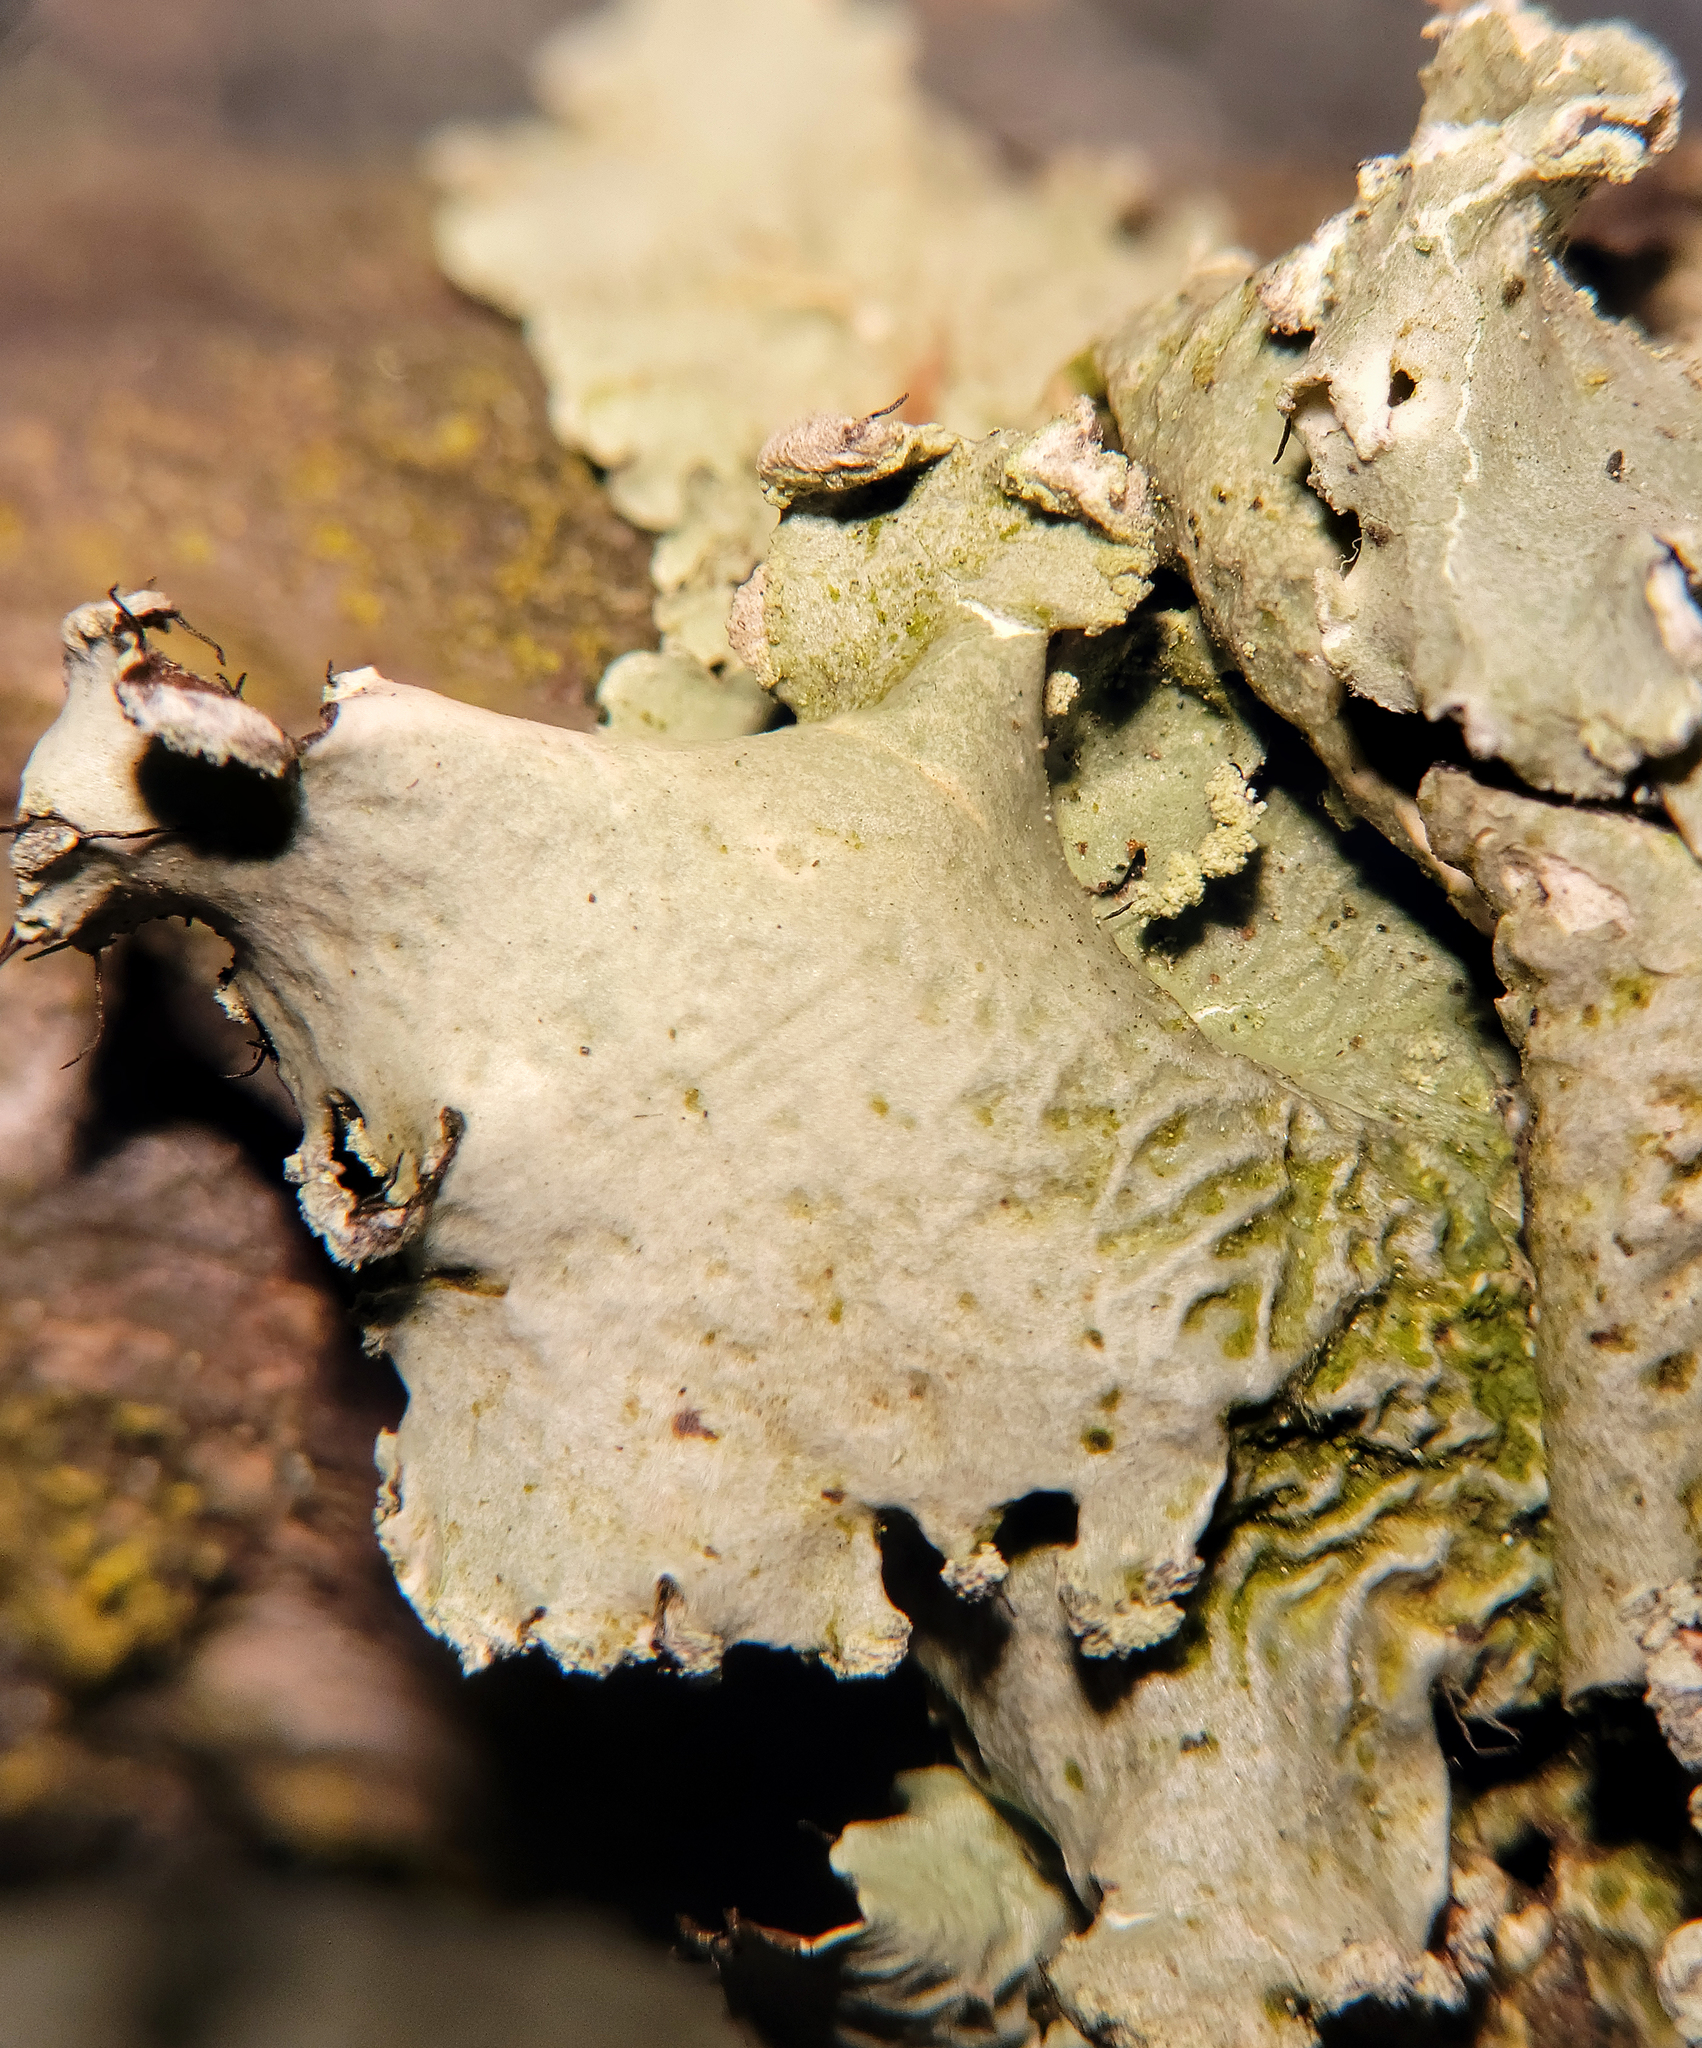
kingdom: Fungi
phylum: Ascomycota
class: Lecanoromycetes
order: Lecanorales
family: Parmeliaceae
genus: Parmotrema
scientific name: Parmotrema perlatum
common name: Black stone flower
